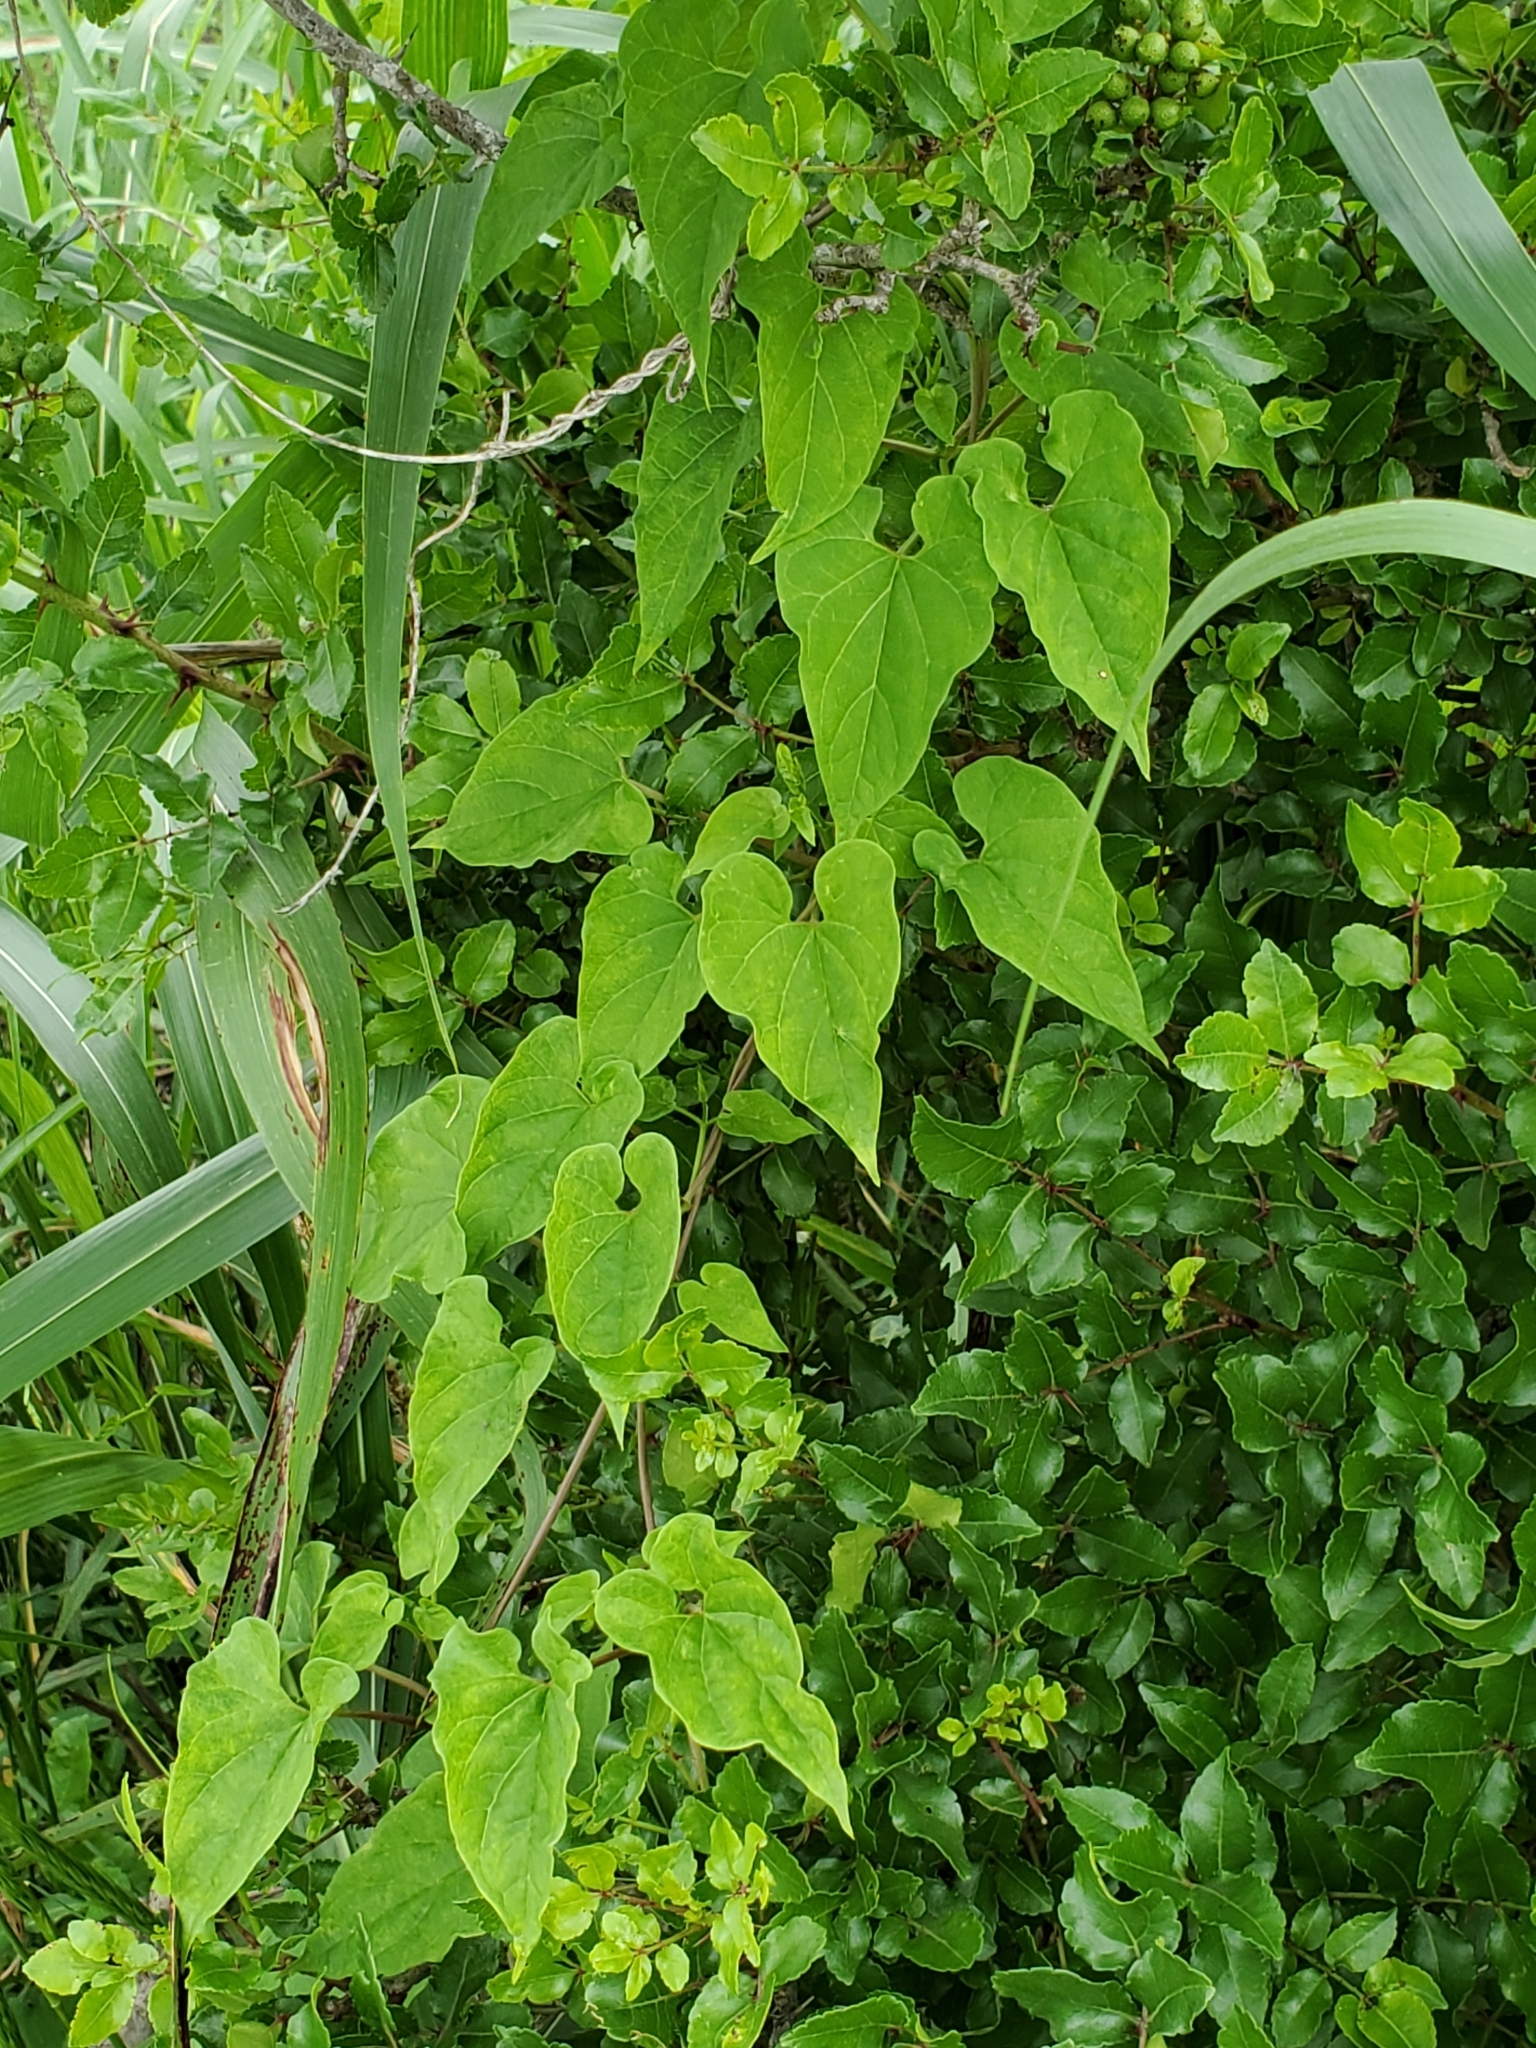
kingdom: Plantae
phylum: Tracheophyta
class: Magnoliopsida
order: Gentianales
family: Apocynaceae
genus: Funastrum
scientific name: Funastrum cynanchoides
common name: Climbing-milkweed
